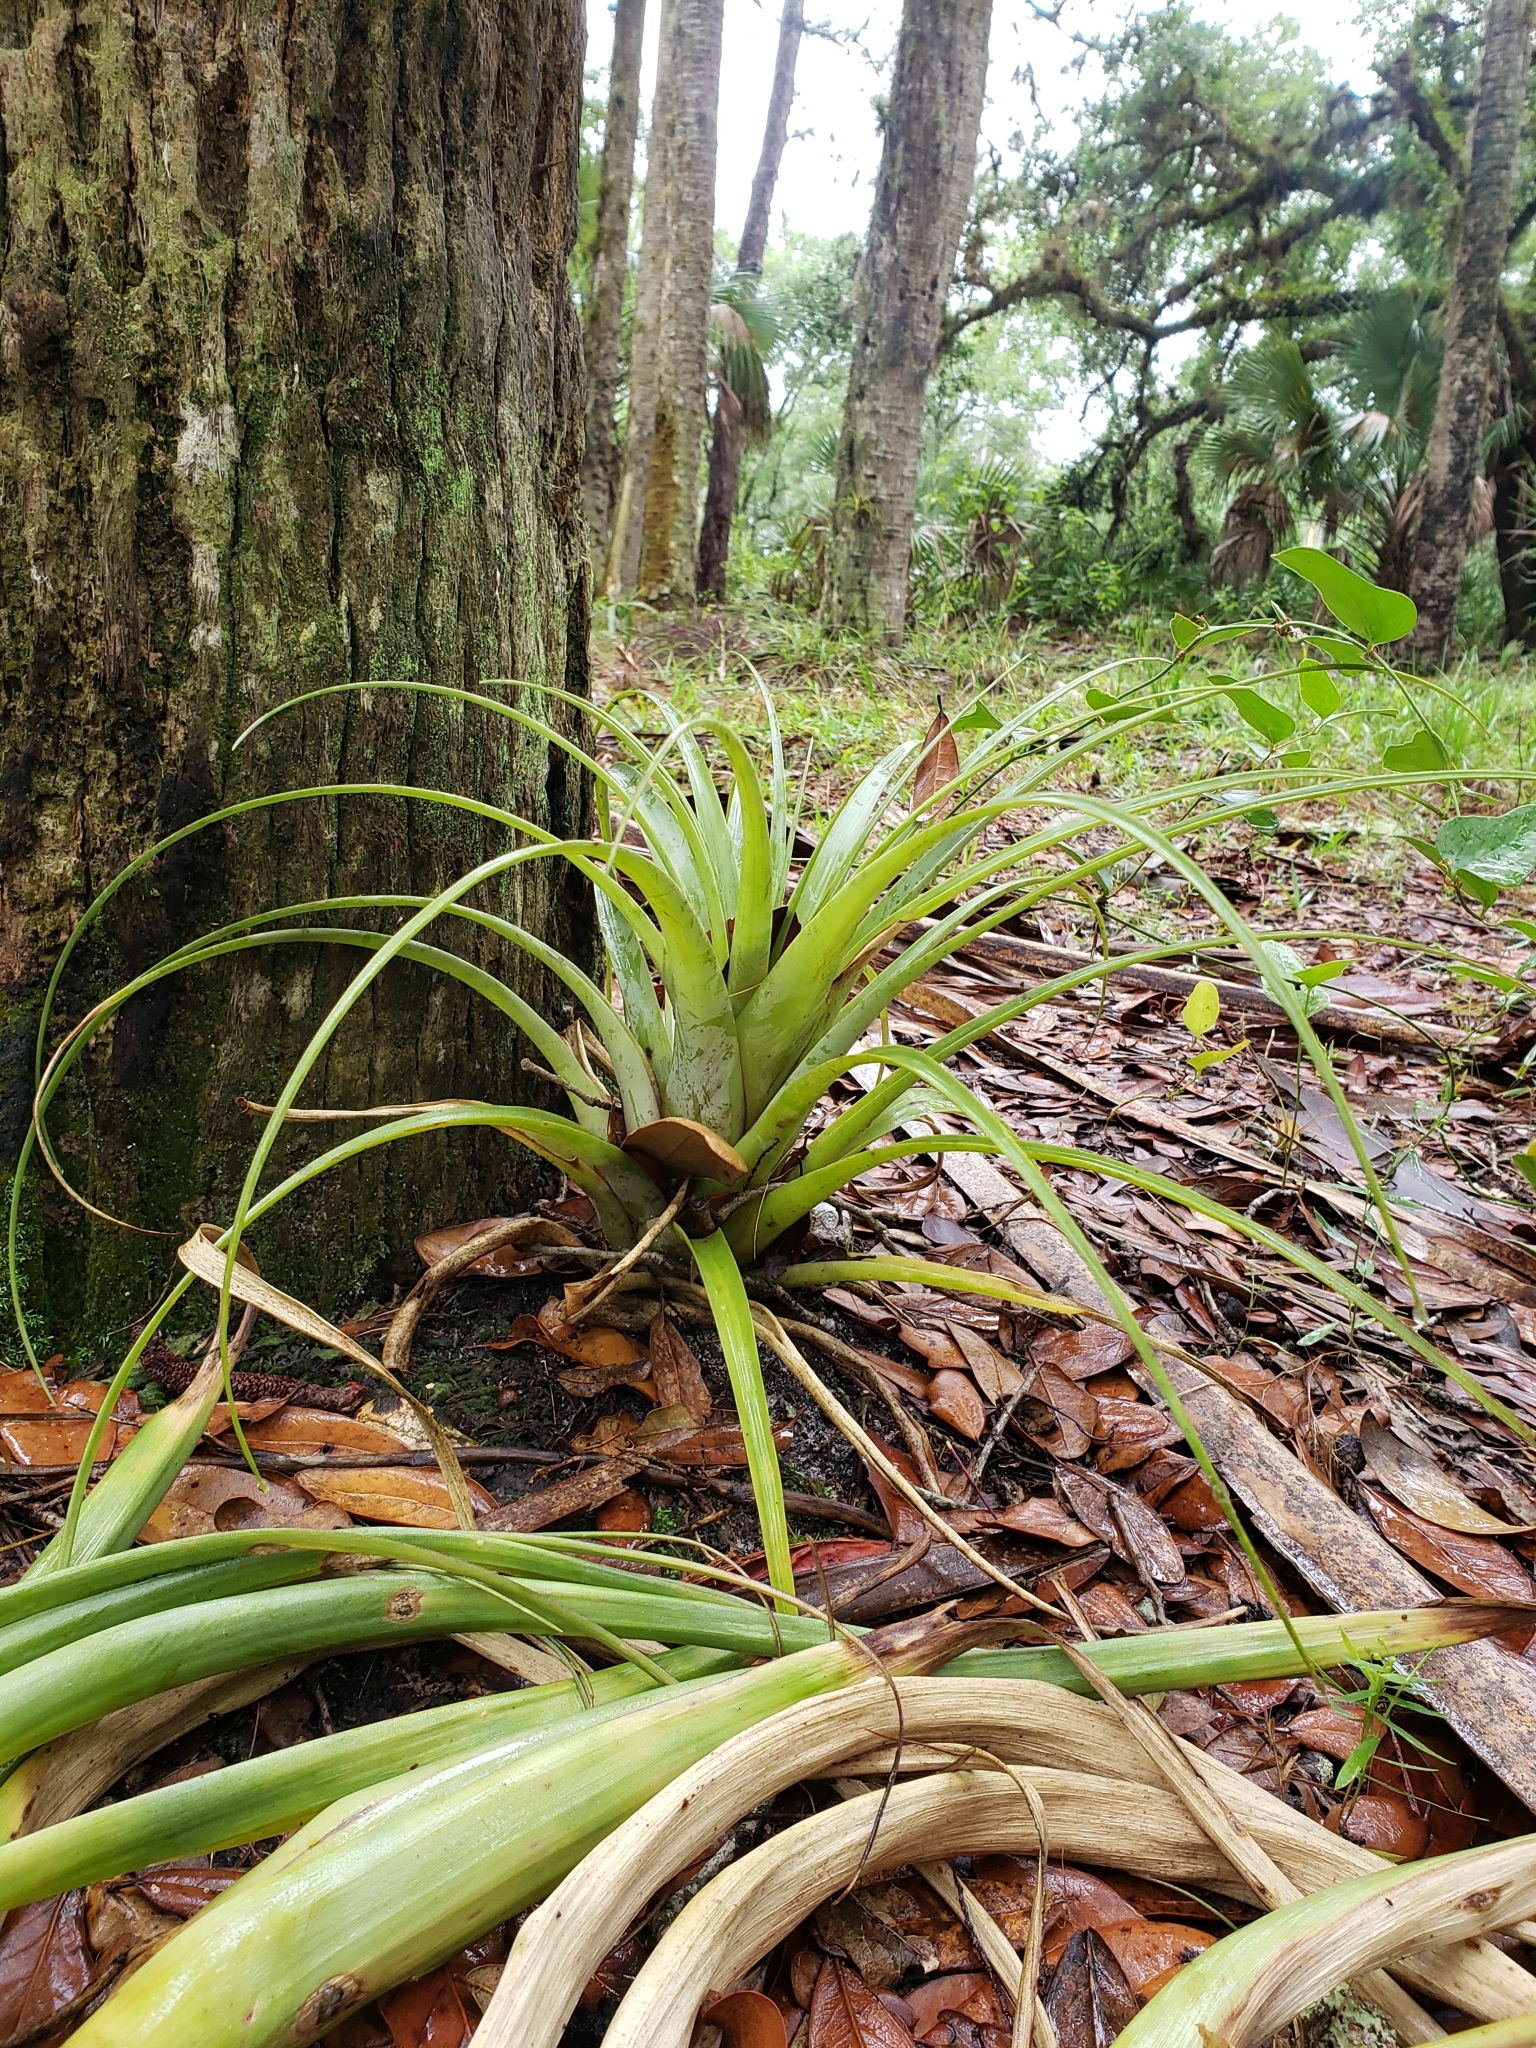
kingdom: Plantae
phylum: Tracheophyta
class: Liliopsida
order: Poales
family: Bromeliaceae
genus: Tillandsia
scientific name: Tillandsia utriculata
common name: Wild pine
